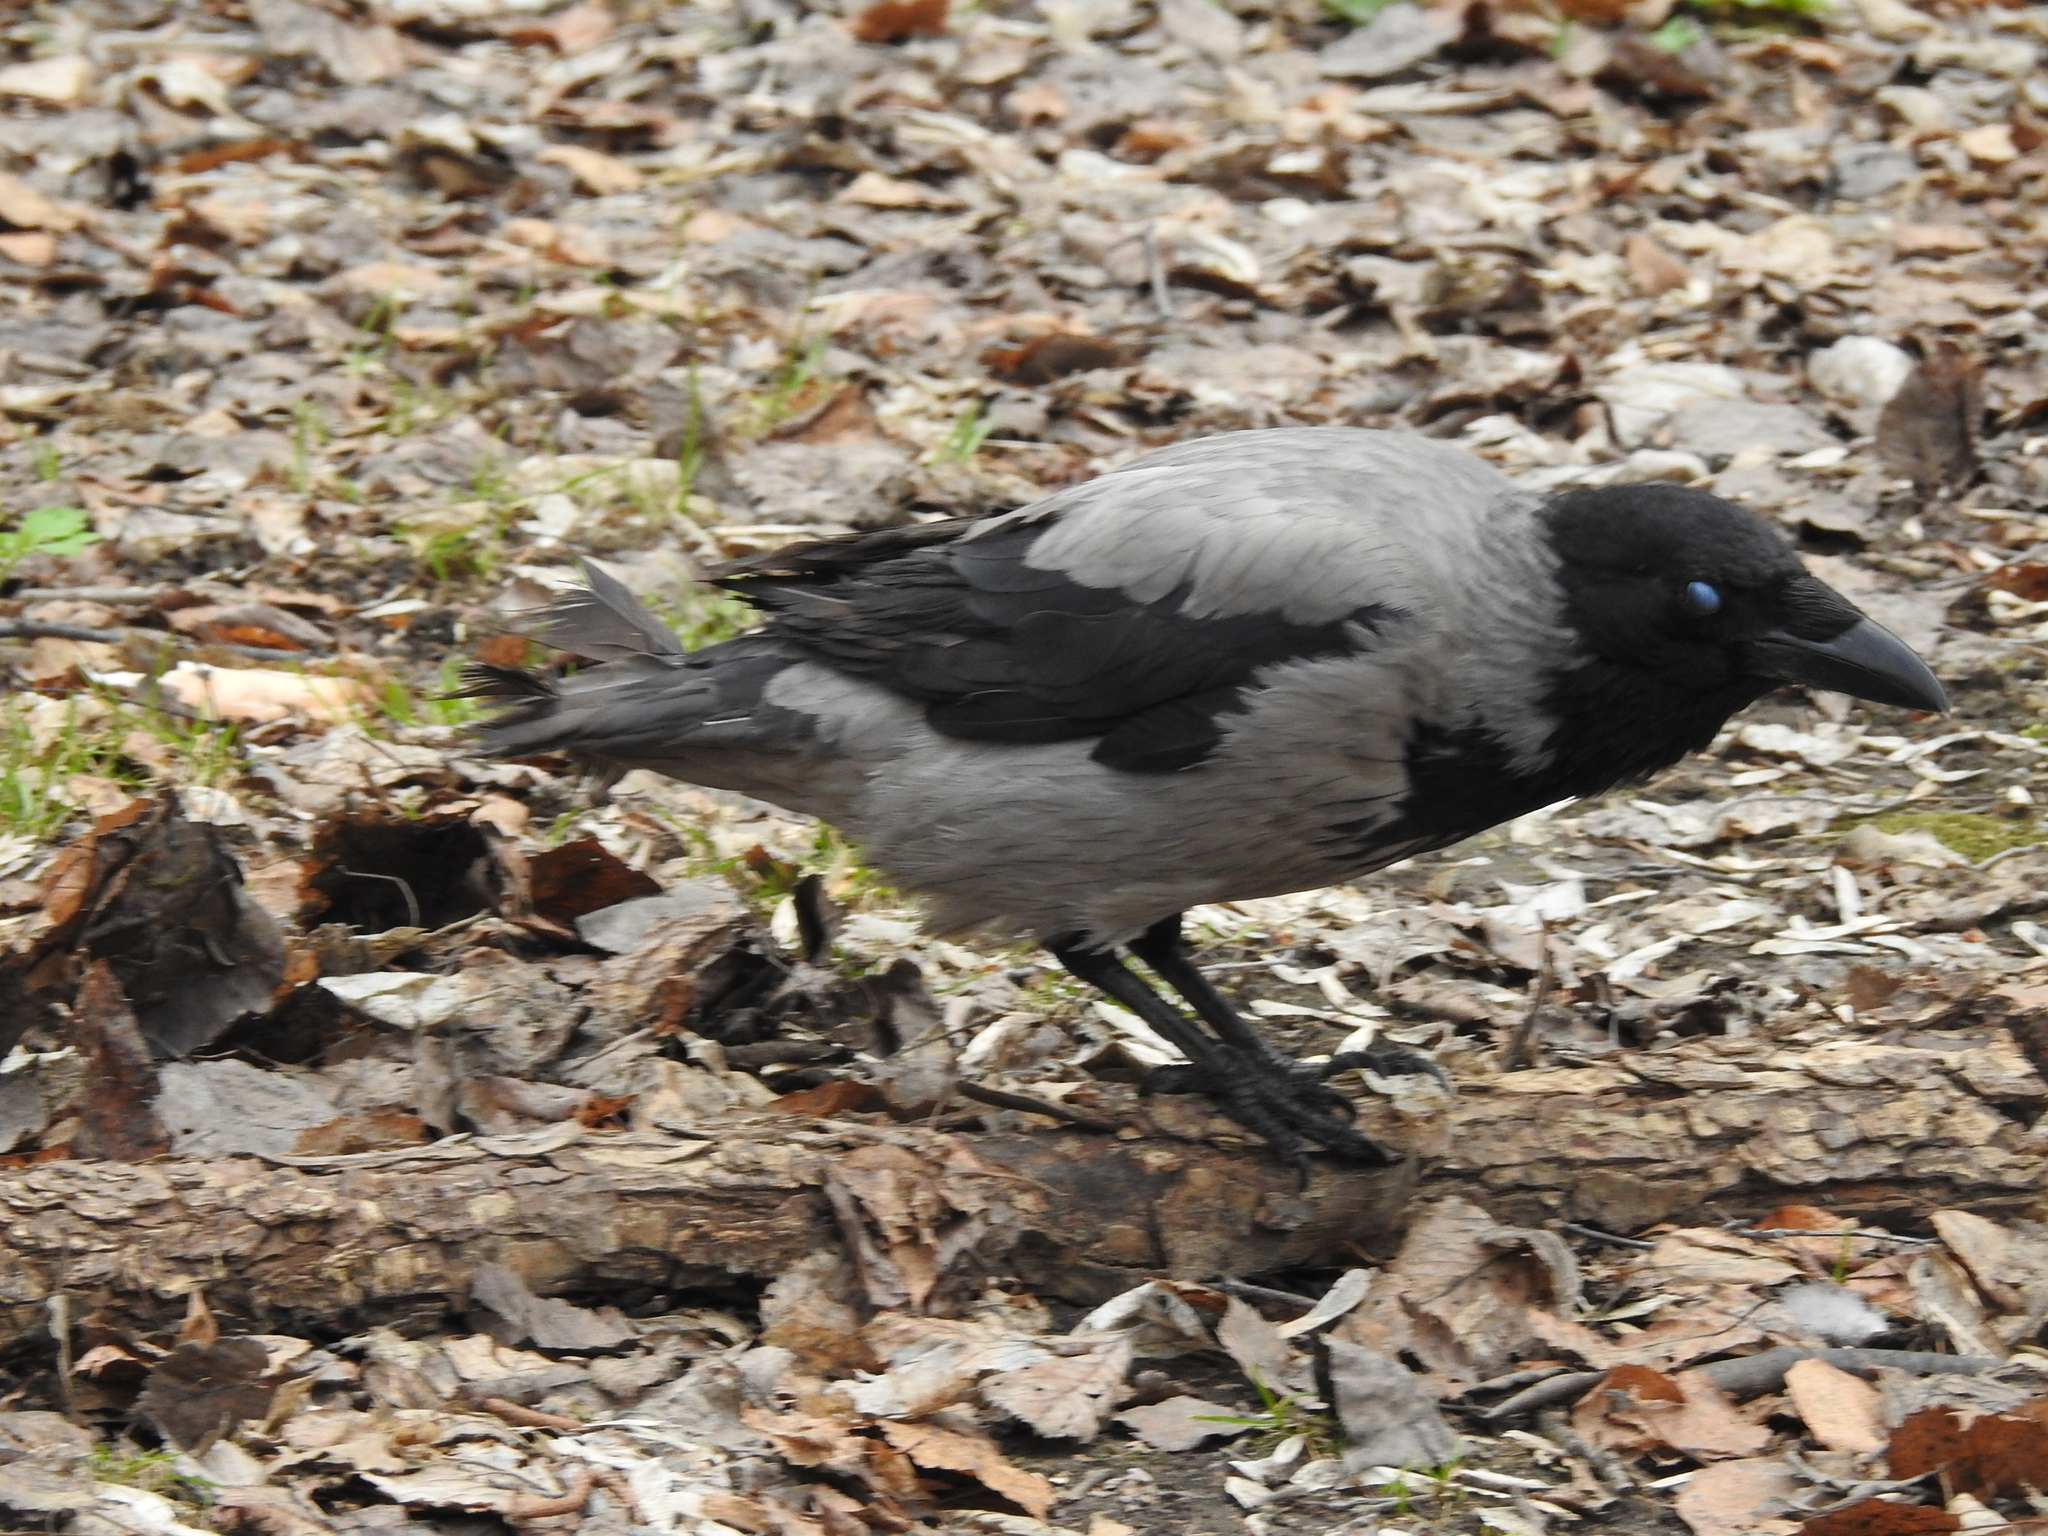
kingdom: Animalia
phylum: Chordata
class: Aves
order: Passeriformes
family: Corvidae
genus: Corvus
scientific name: Corvus cornix
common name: Hooded crow
